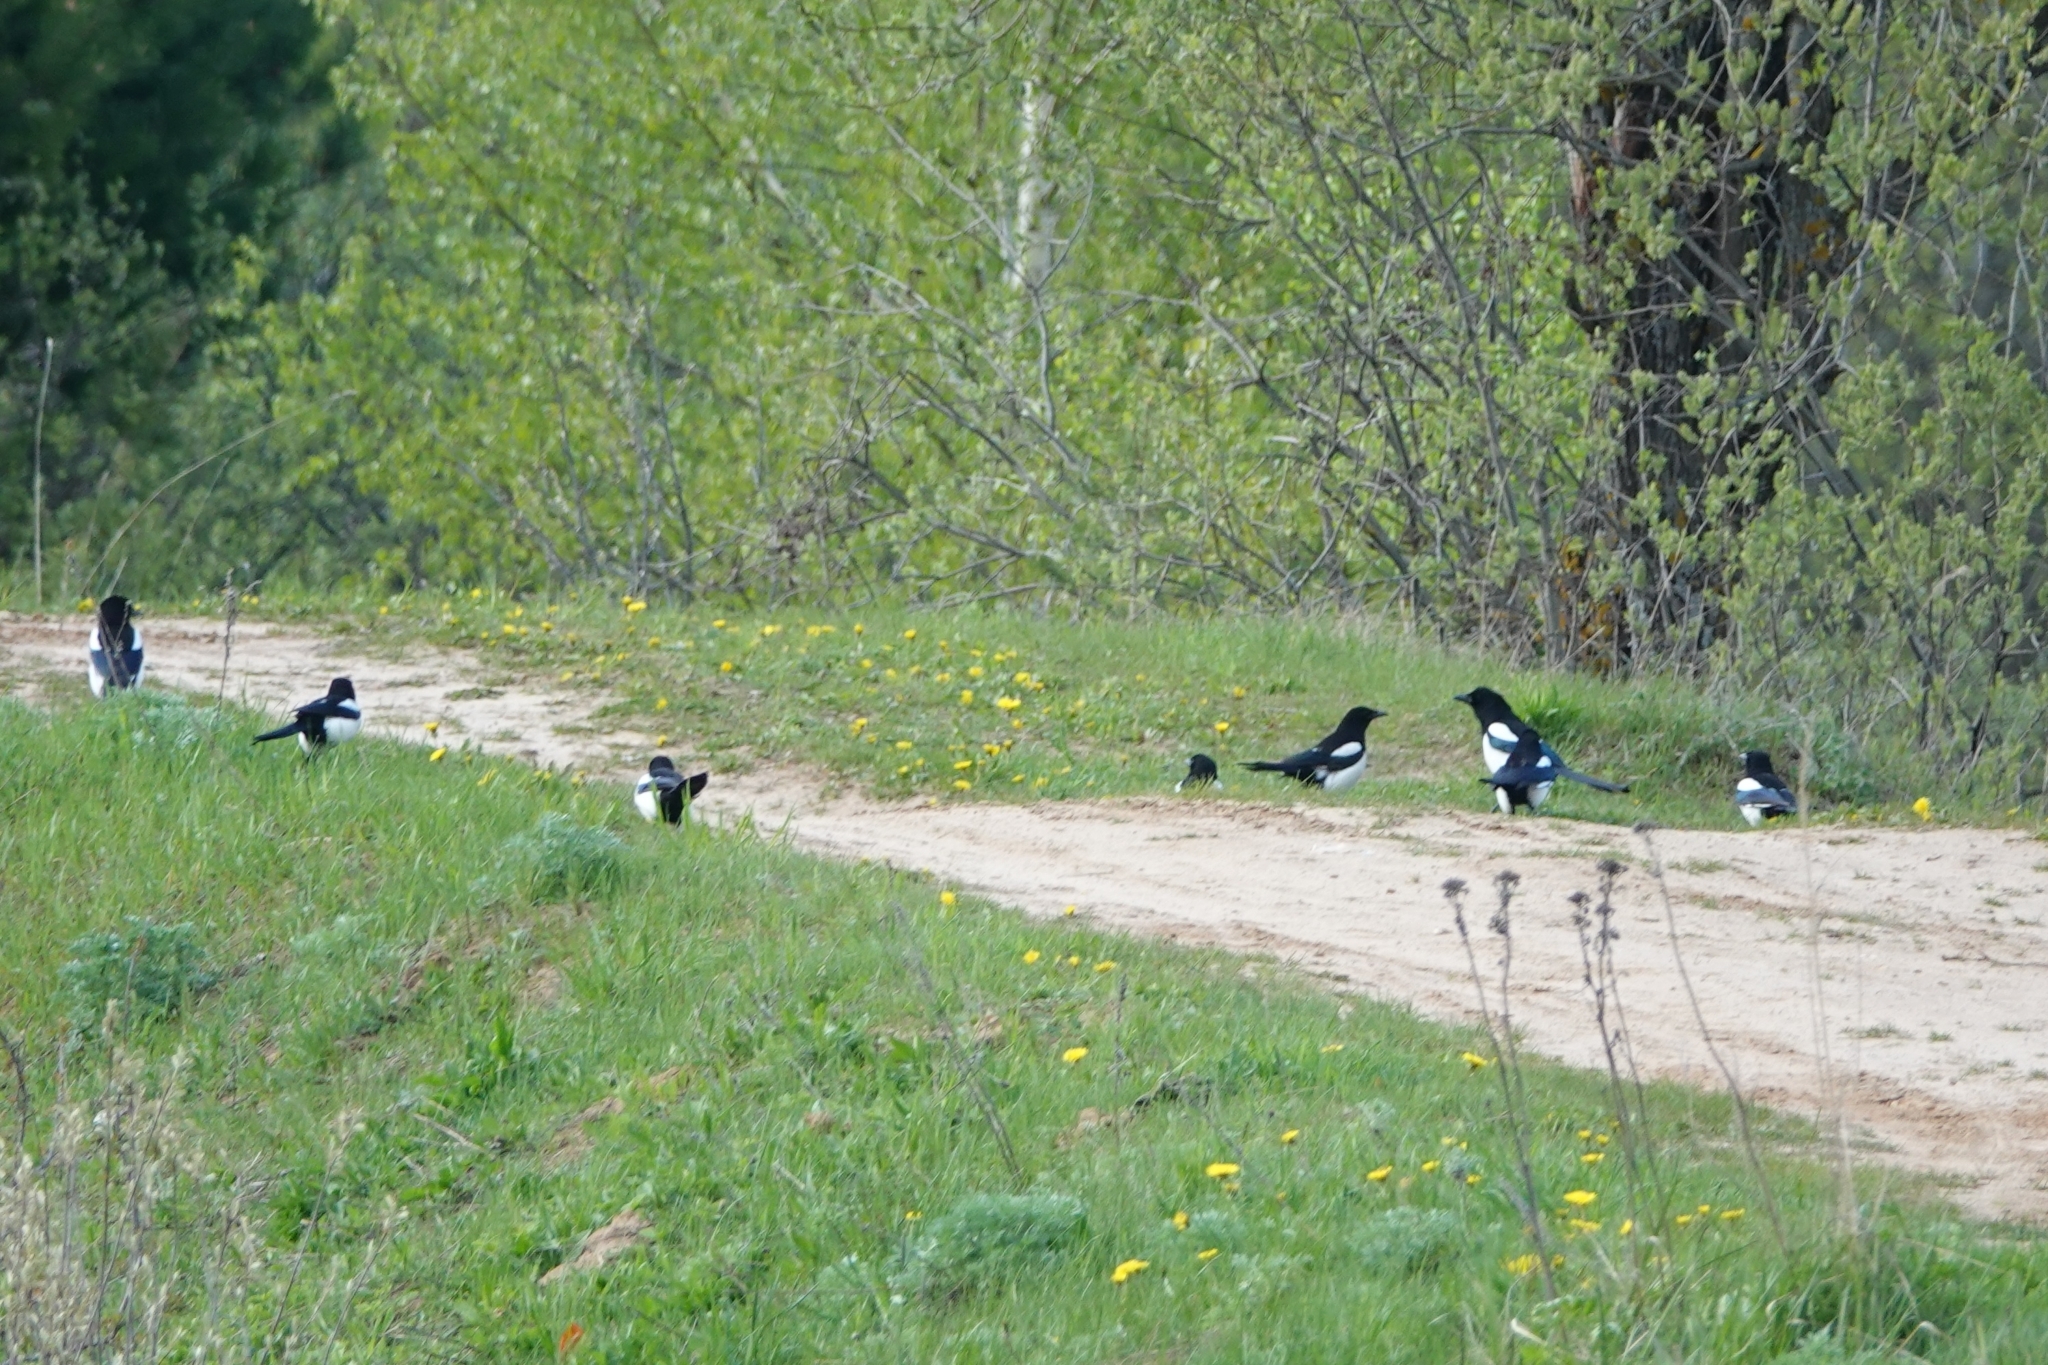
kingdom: Animalia
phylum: Chordata
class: Aves
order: Passeriformes
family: Corvidae
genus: Pica
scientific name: Pica pica
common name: Eurasian magpie
